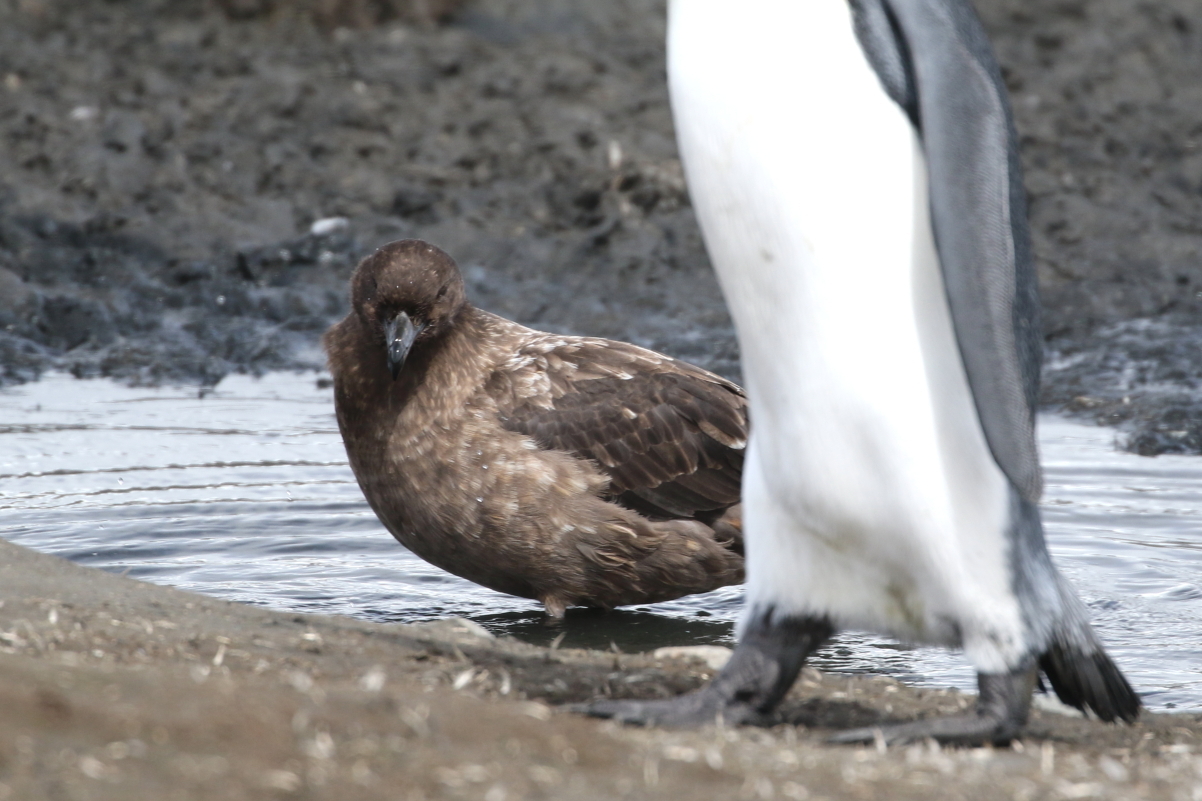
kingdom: Animalia
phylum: Chordata
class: Aves
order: Charadriiformes
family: Stercorariidae
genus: Stercorarius
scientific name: Stercorarius antarcticus
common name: Brown skua
